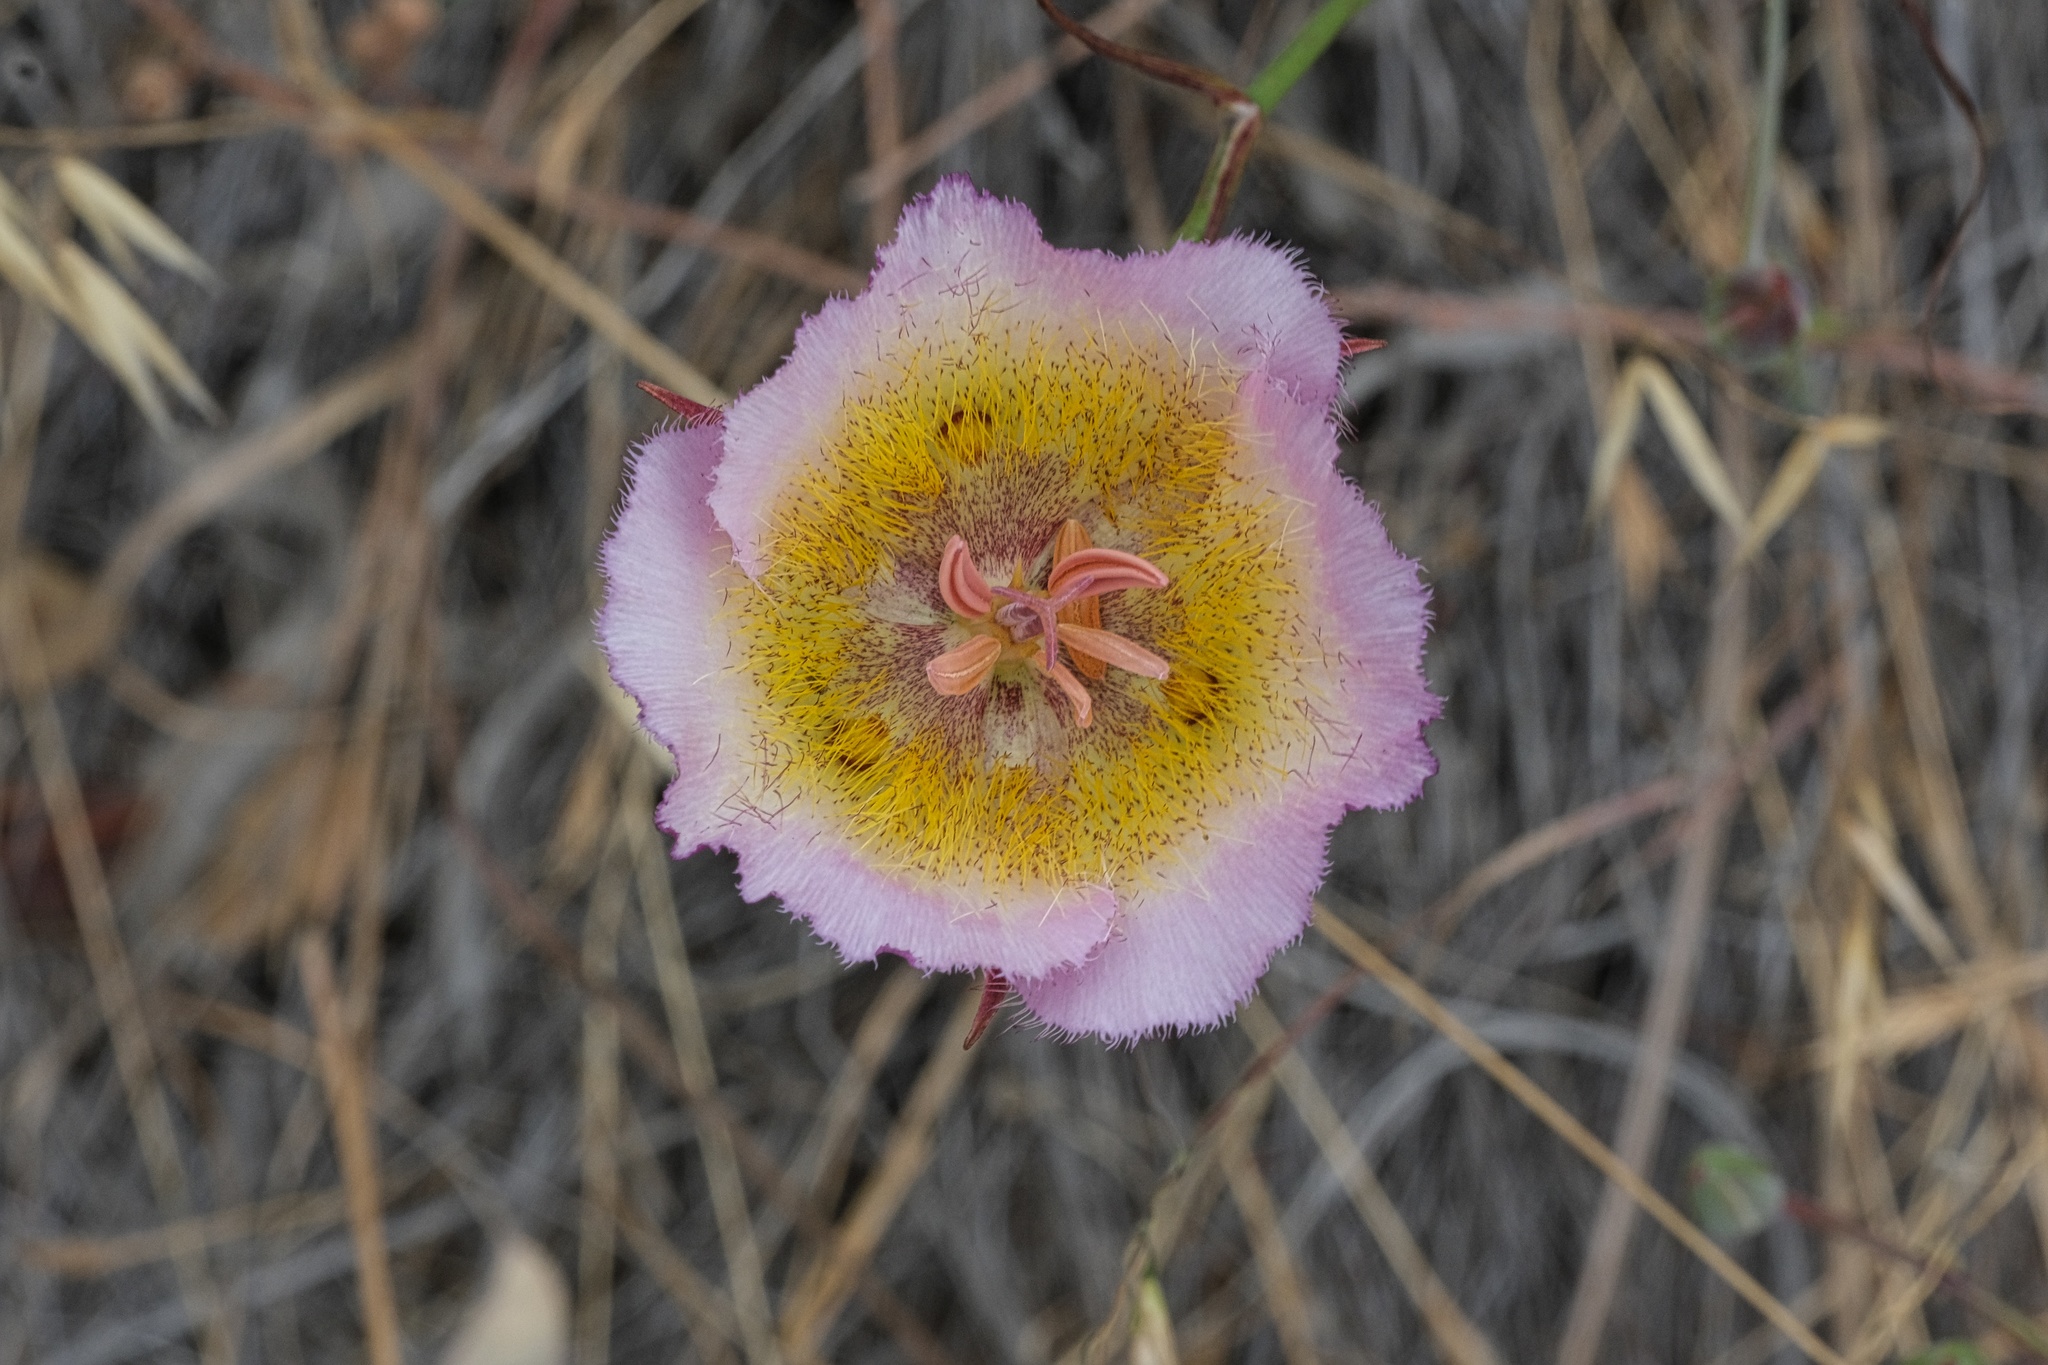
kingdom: Plantae
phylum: Tracheophyta
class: Liliopsida
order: Liliales
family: Liliaceae
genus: Calochortus
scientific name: Calochortus plummerae
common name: Plummer's mariposa-lily
